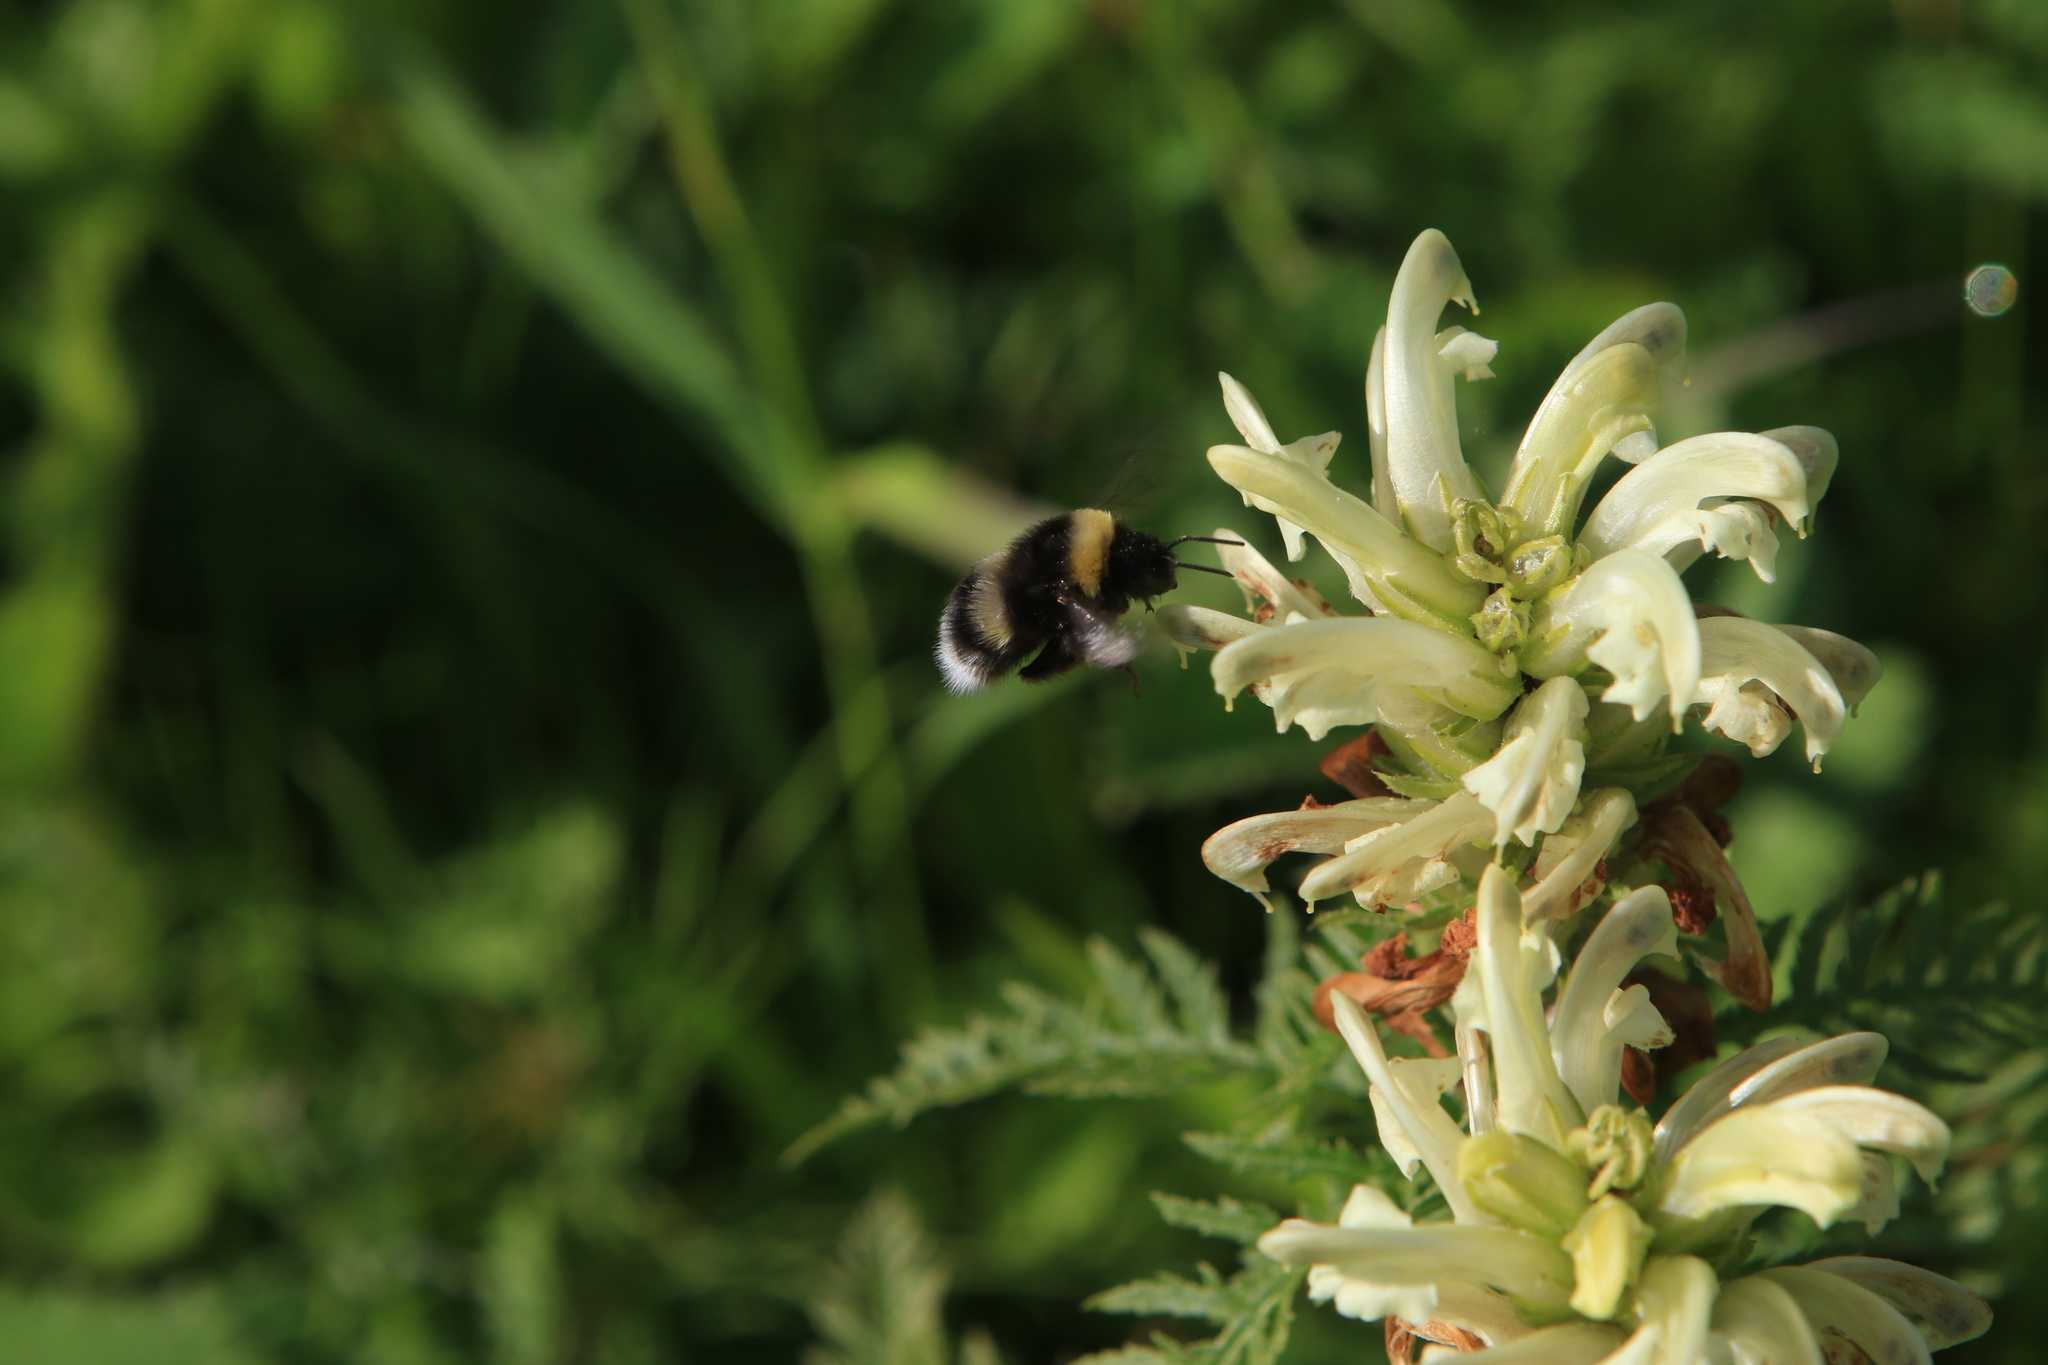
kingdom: Animalia
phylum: Arthropoda
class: Insecta
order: Hymenoptera
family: Apidae
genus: Bombus
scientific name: Bombus
